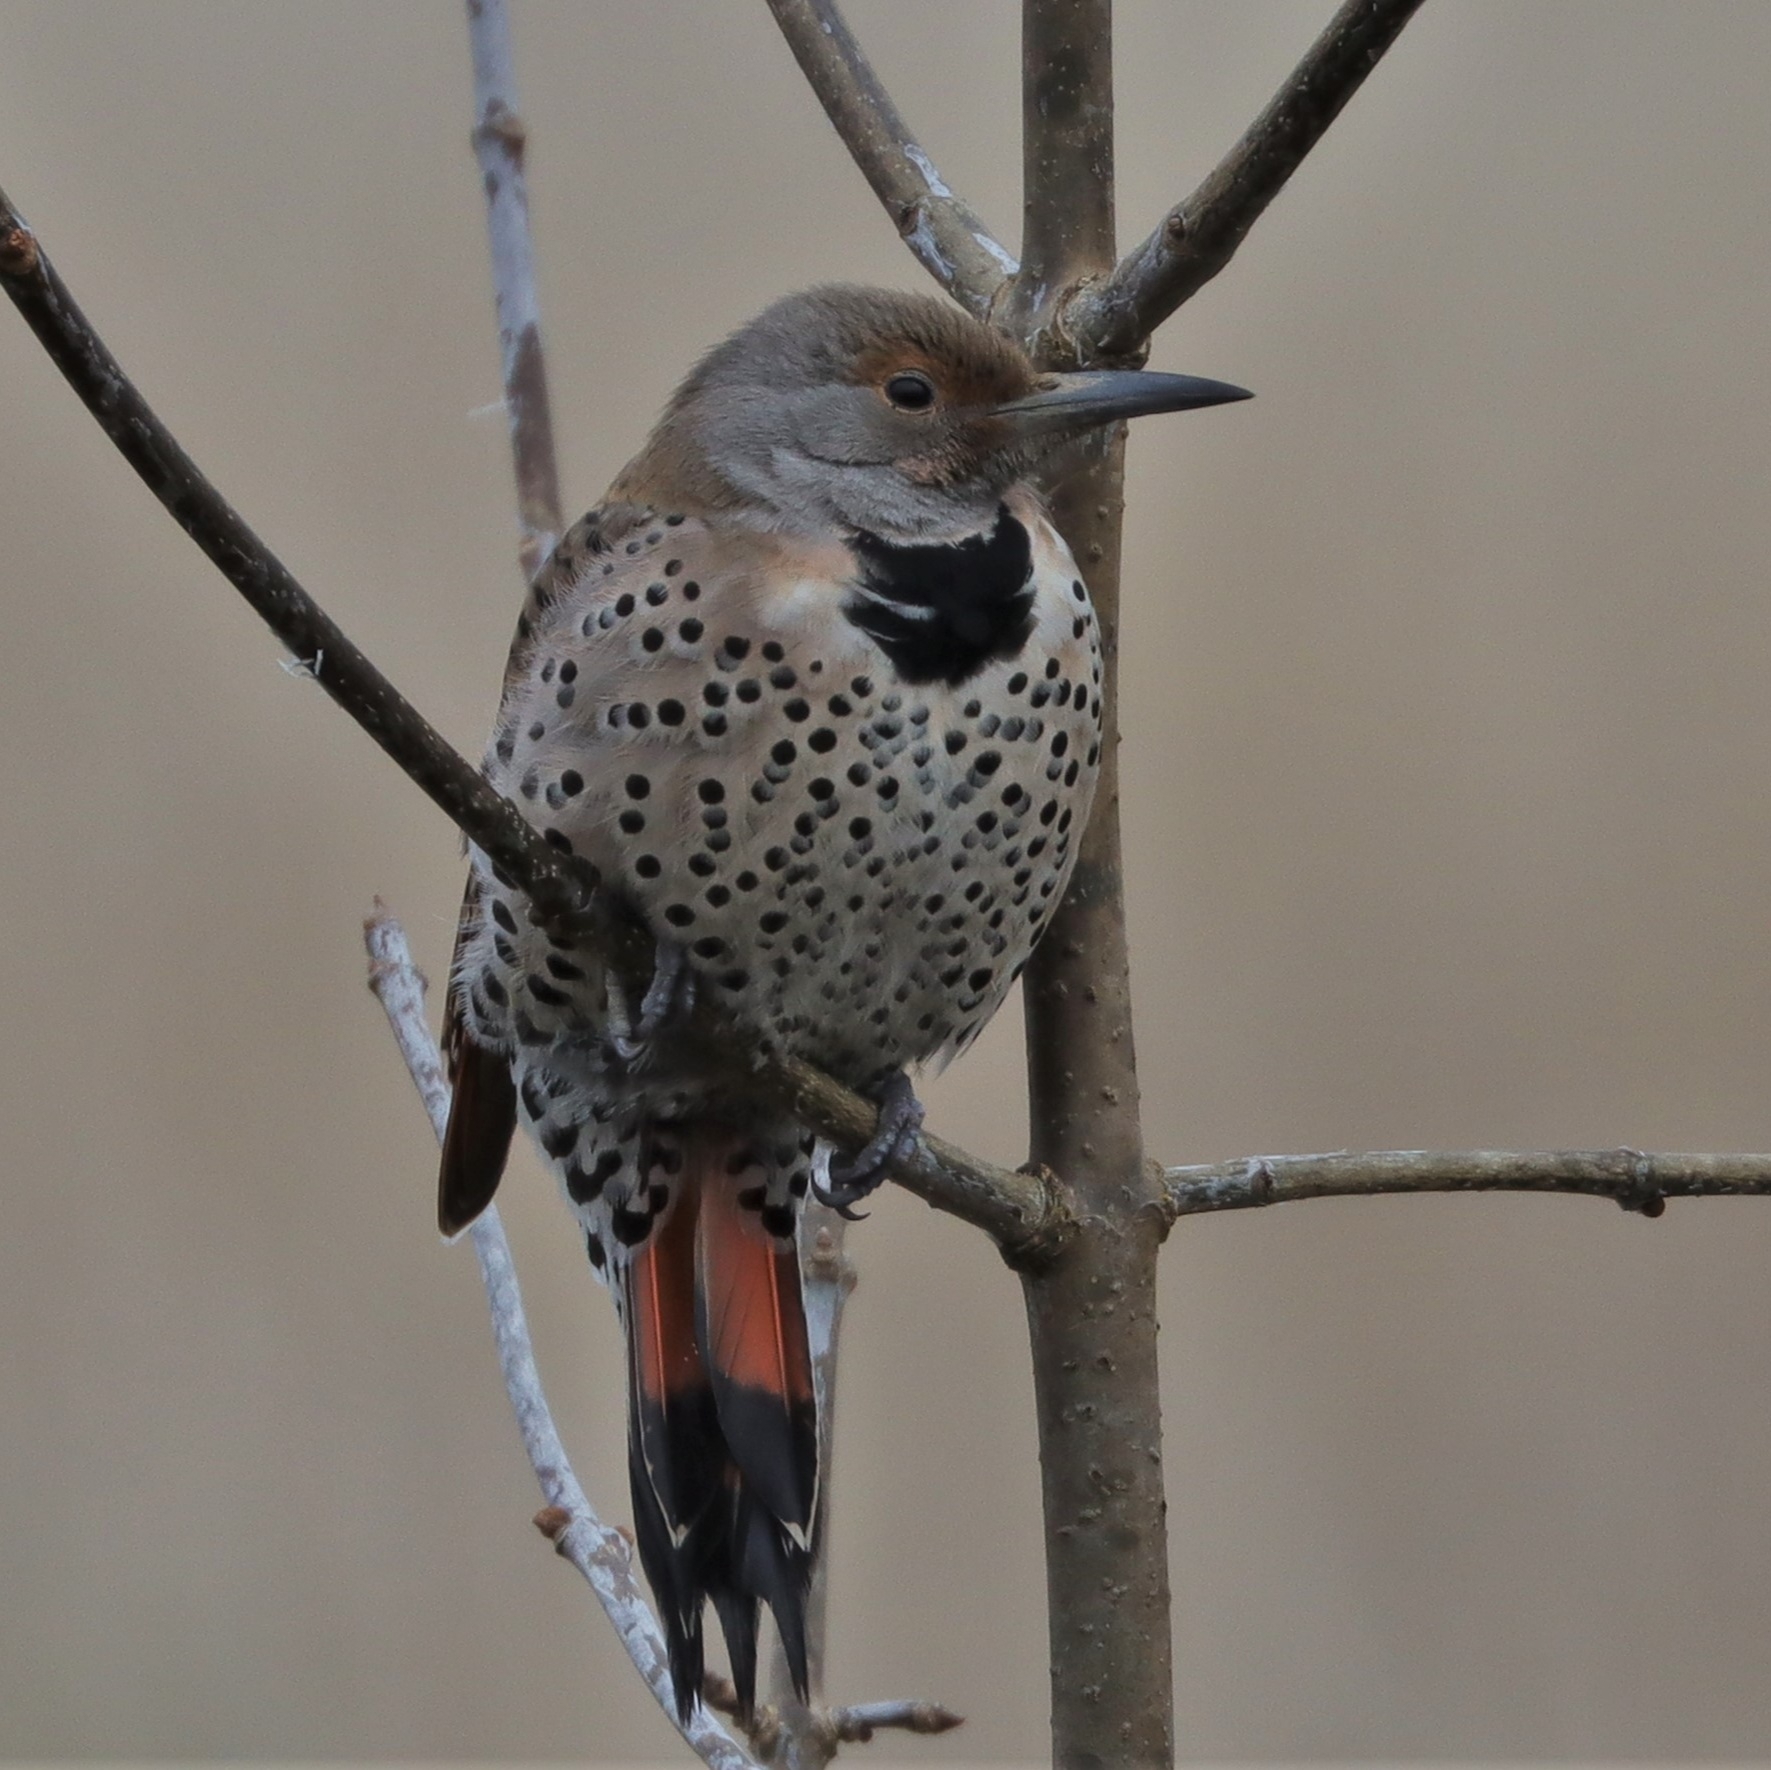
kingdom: Animalia
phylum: Chordata
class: Aves
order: Piciformes
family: Picidae
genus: Colaptes
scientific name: Colaptes auratus
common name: Northern flicker
